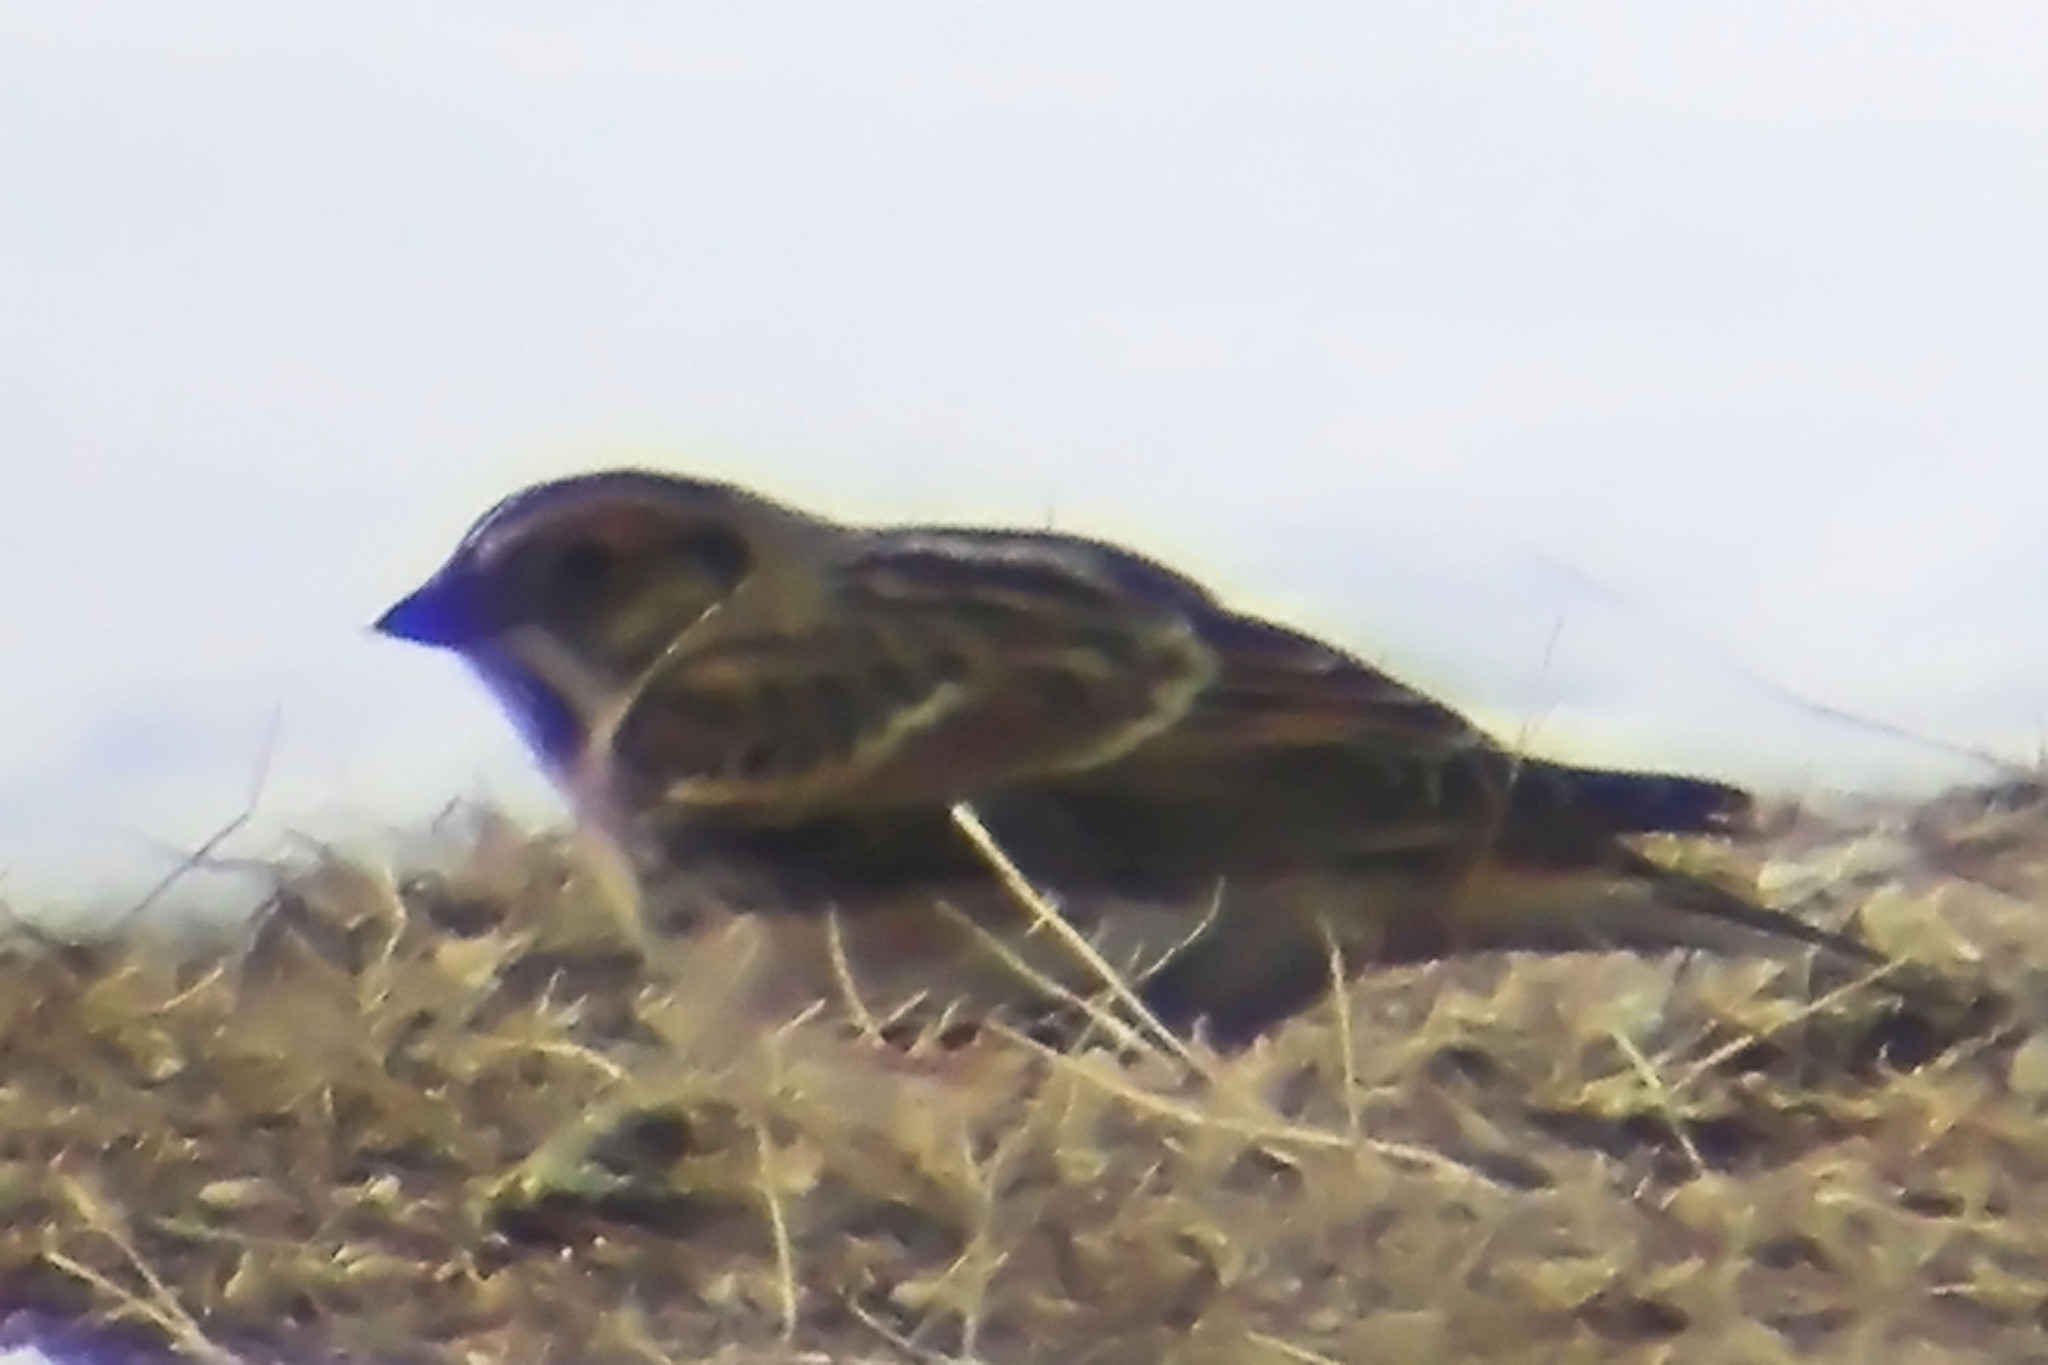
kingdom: Animalia
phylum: Chordata
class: Aves
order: Passeriformes
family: Calcariidae
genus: Calcarius
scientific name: Calcarius lapponicus
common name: Lapland longspur
